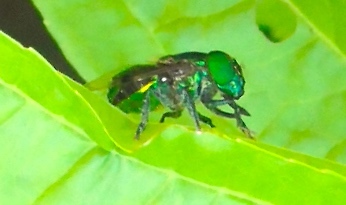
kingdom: Animalia
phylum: Arthropoda
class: Insecta
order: Diptera
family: Syrphidae
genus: Ornidia
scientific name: Ornidia
